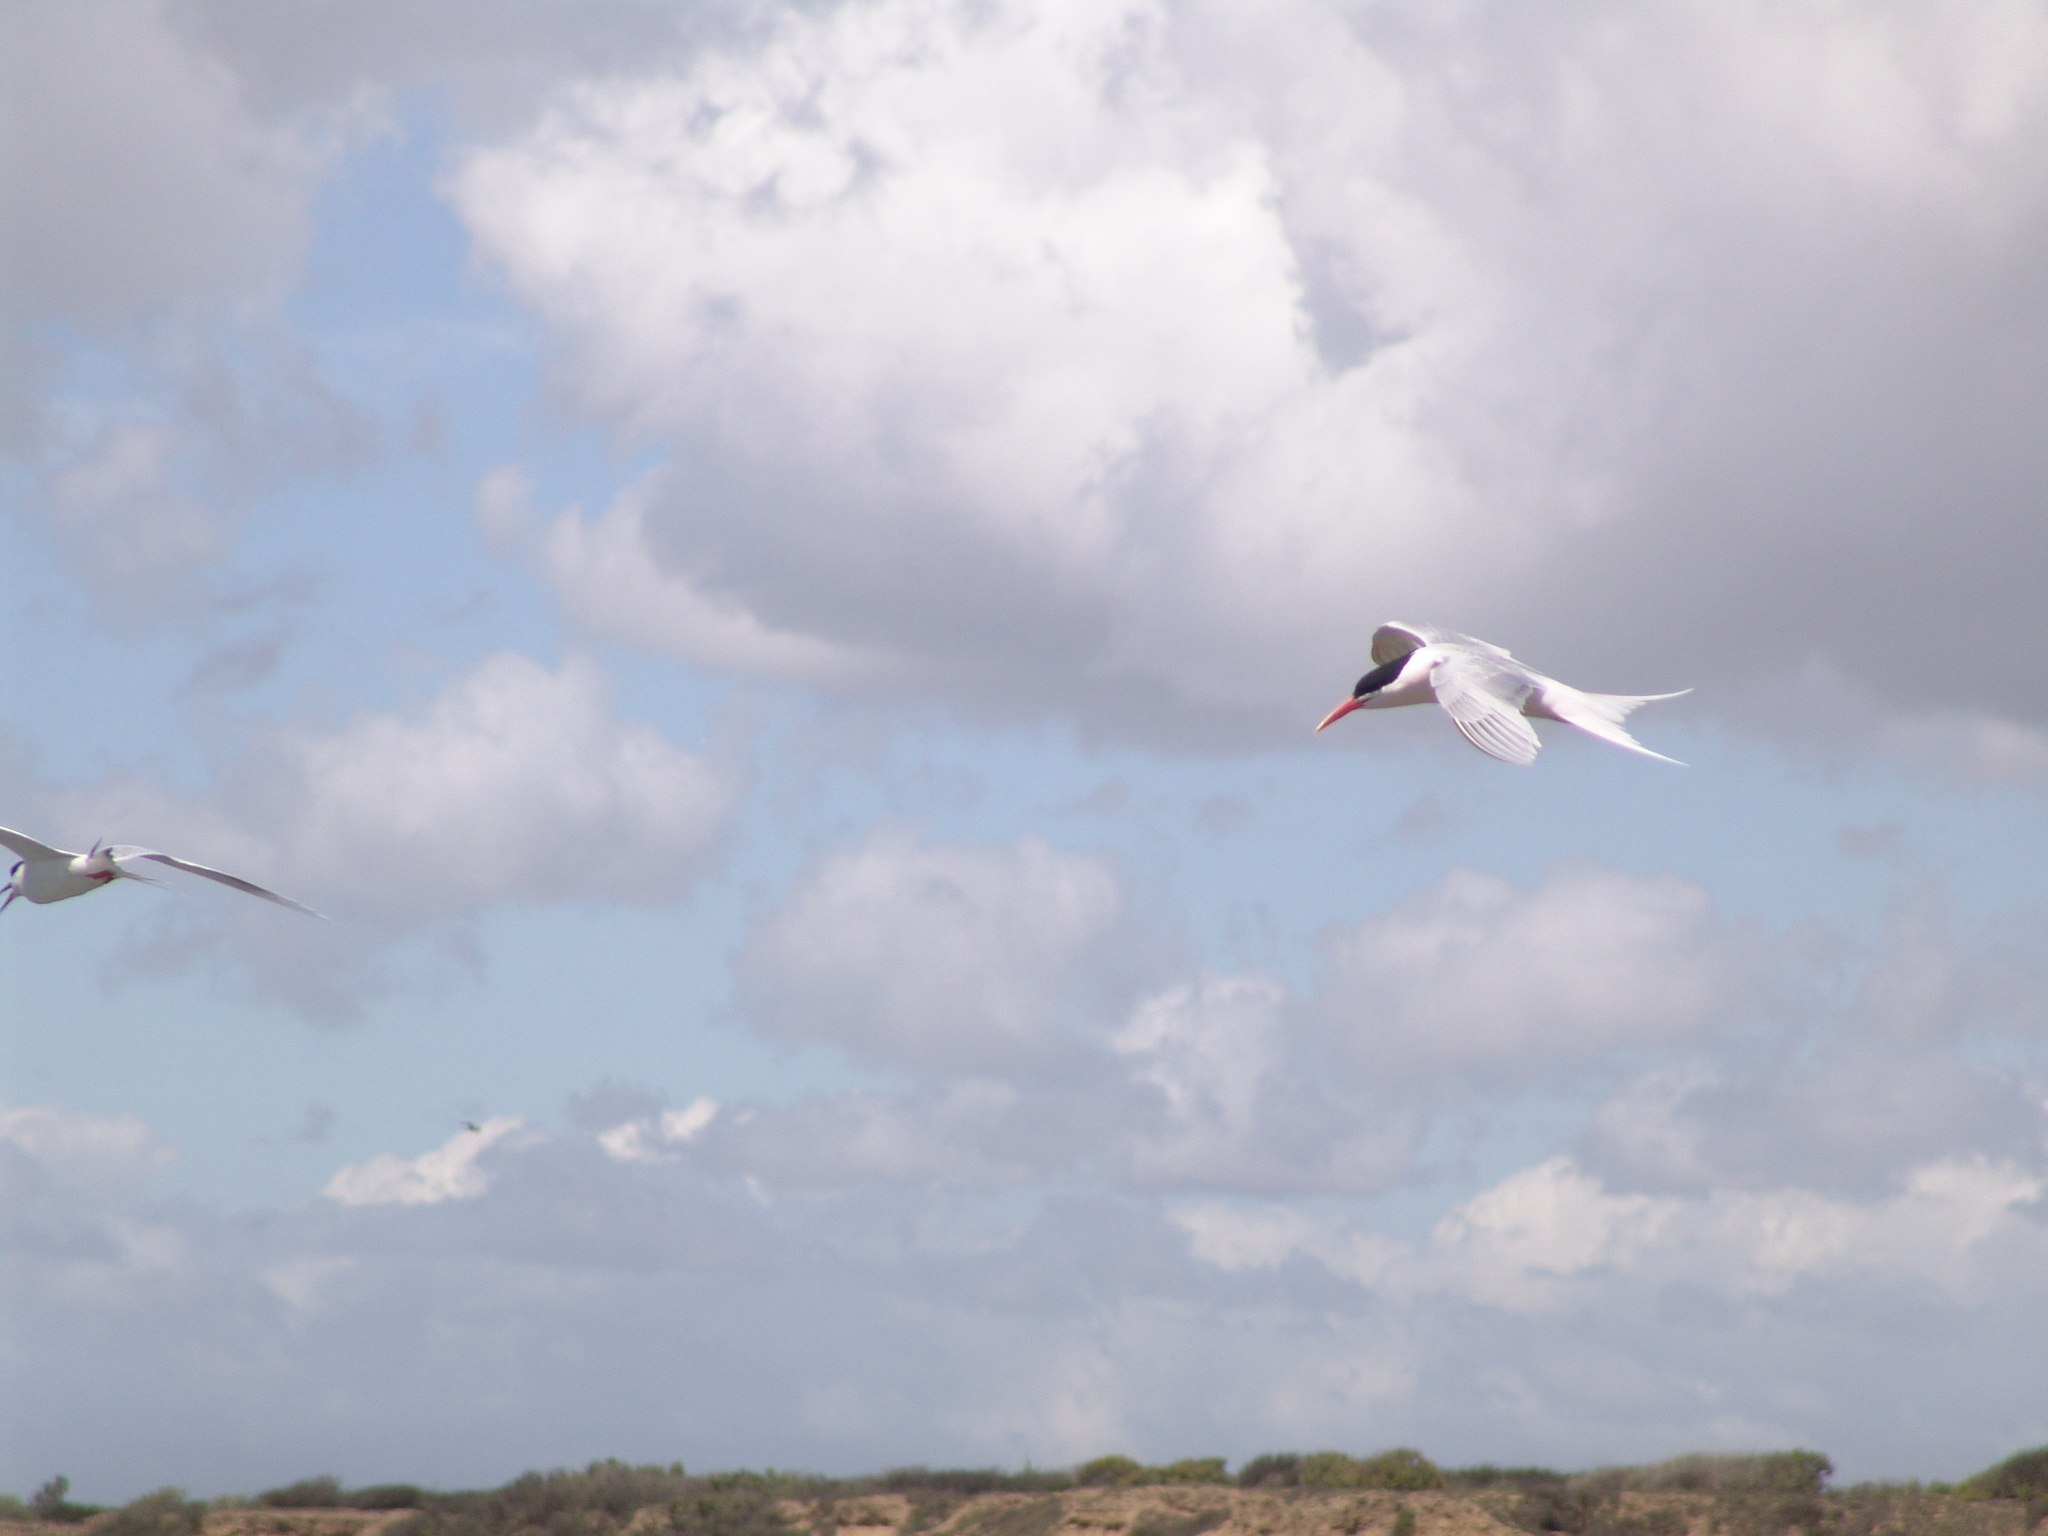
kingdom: Animalia
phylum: Chordata
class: Aves
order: Charadriiformes
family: Laridae
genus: Thalasseus
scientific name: Thalasseus elegans
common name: Elegant tern
